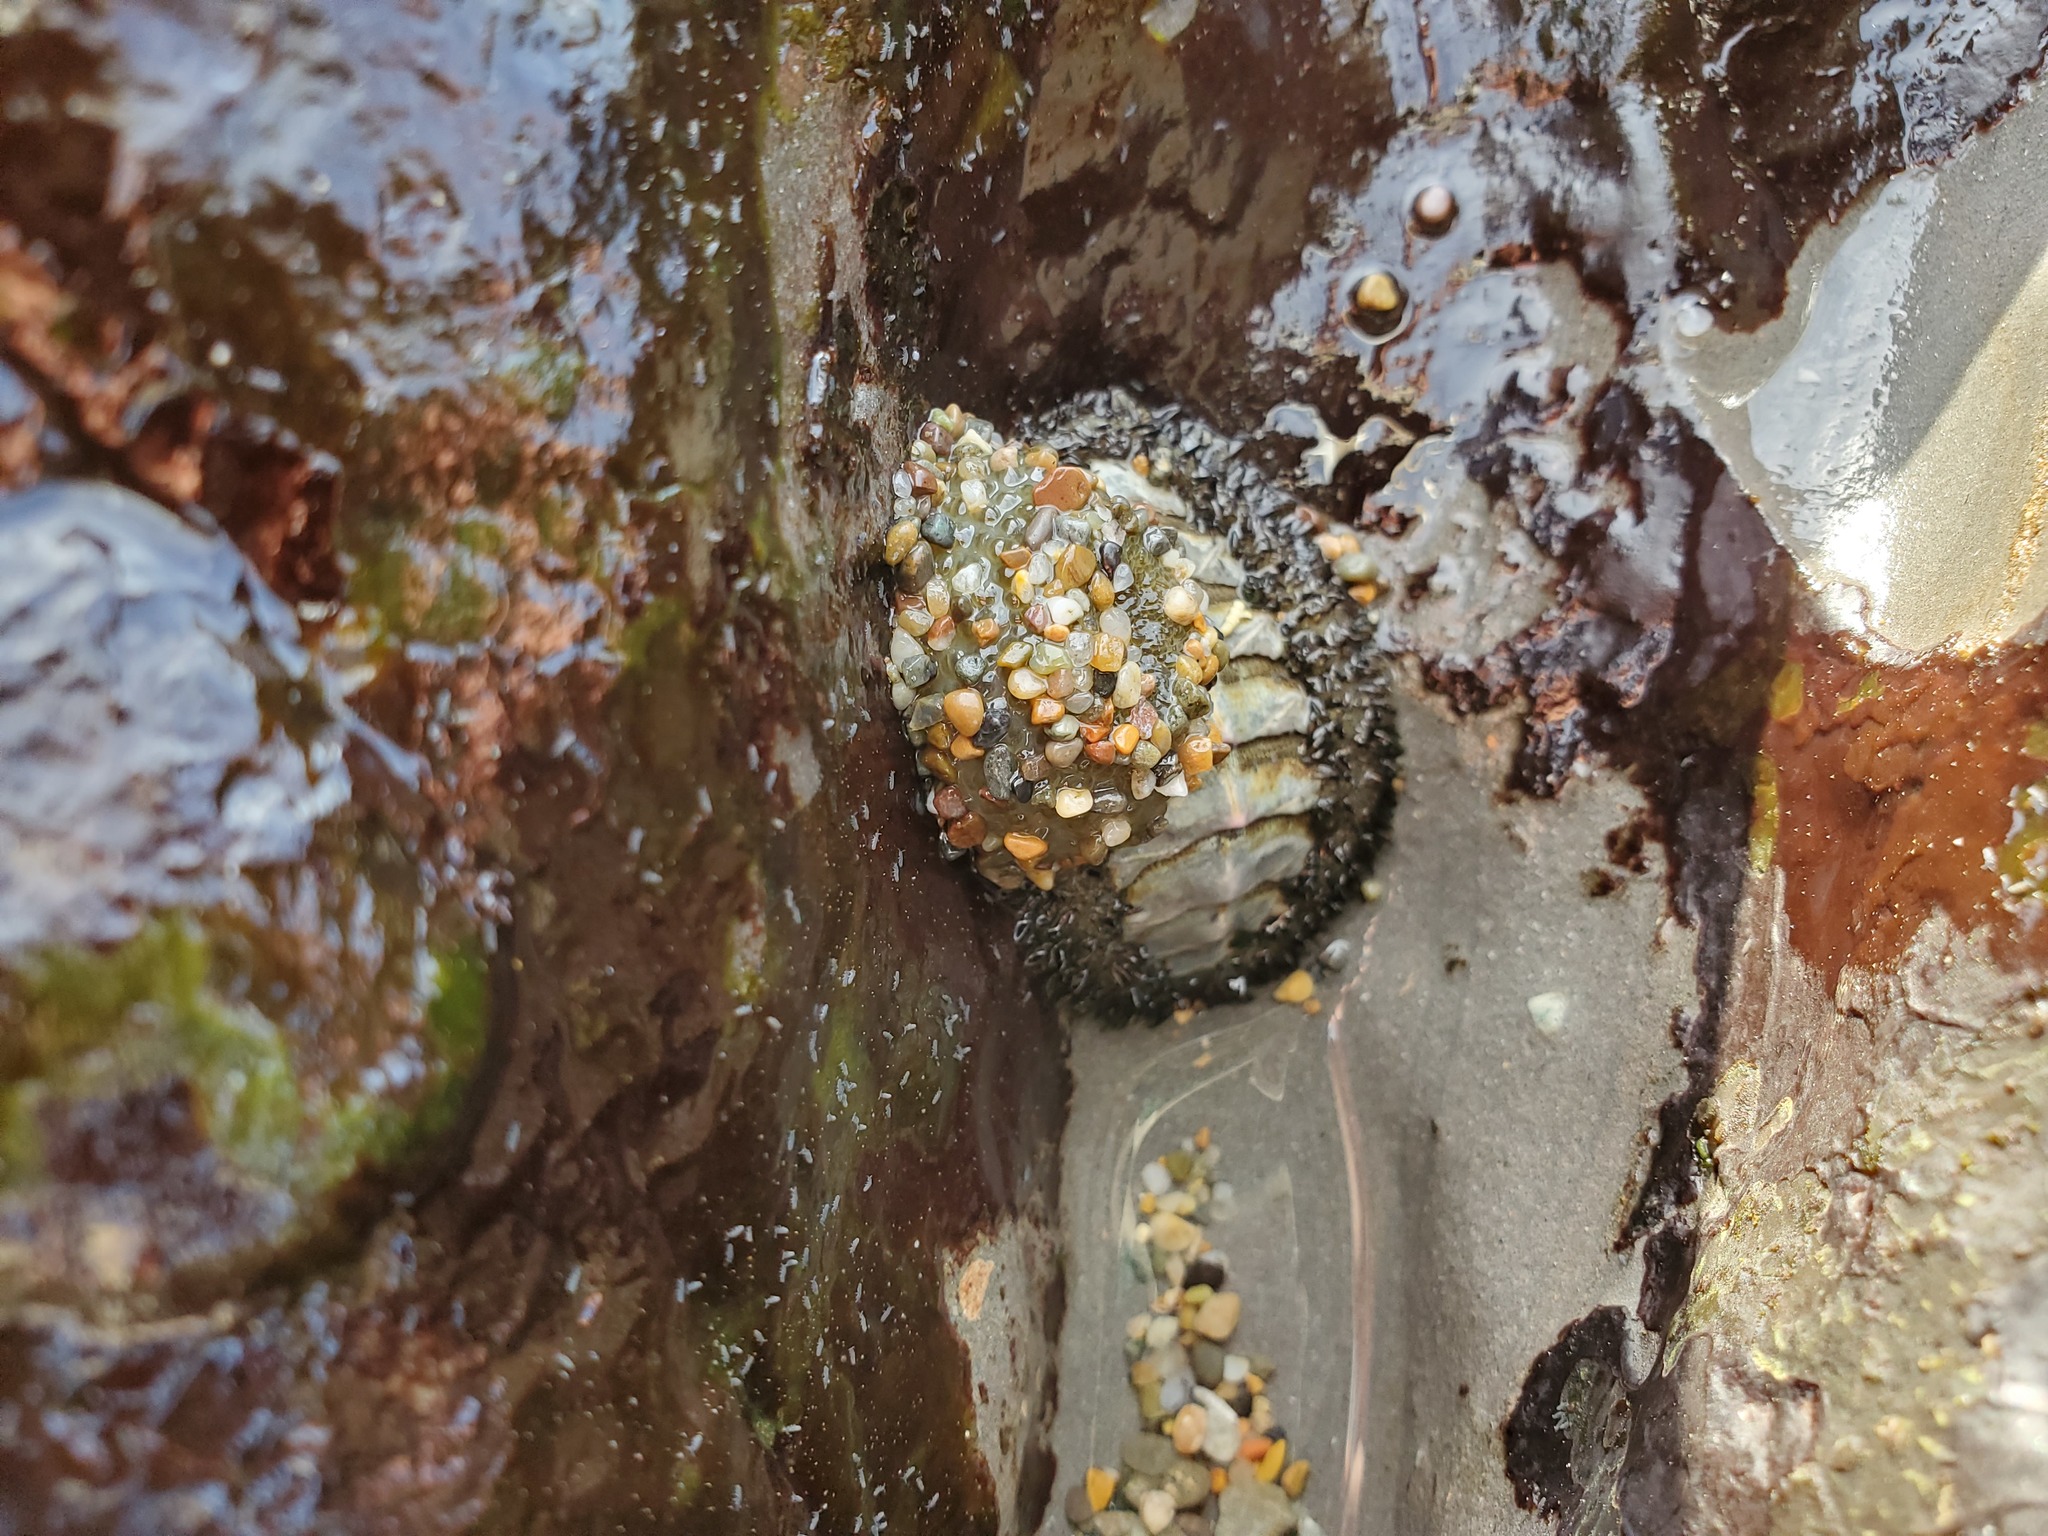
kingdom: Animalia
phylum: Mollusca
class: Polyplacophora
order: Chitonida
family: Mopaliidae
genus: Mopalia
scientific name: Mopalia muscosa
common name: Mossy chiton
